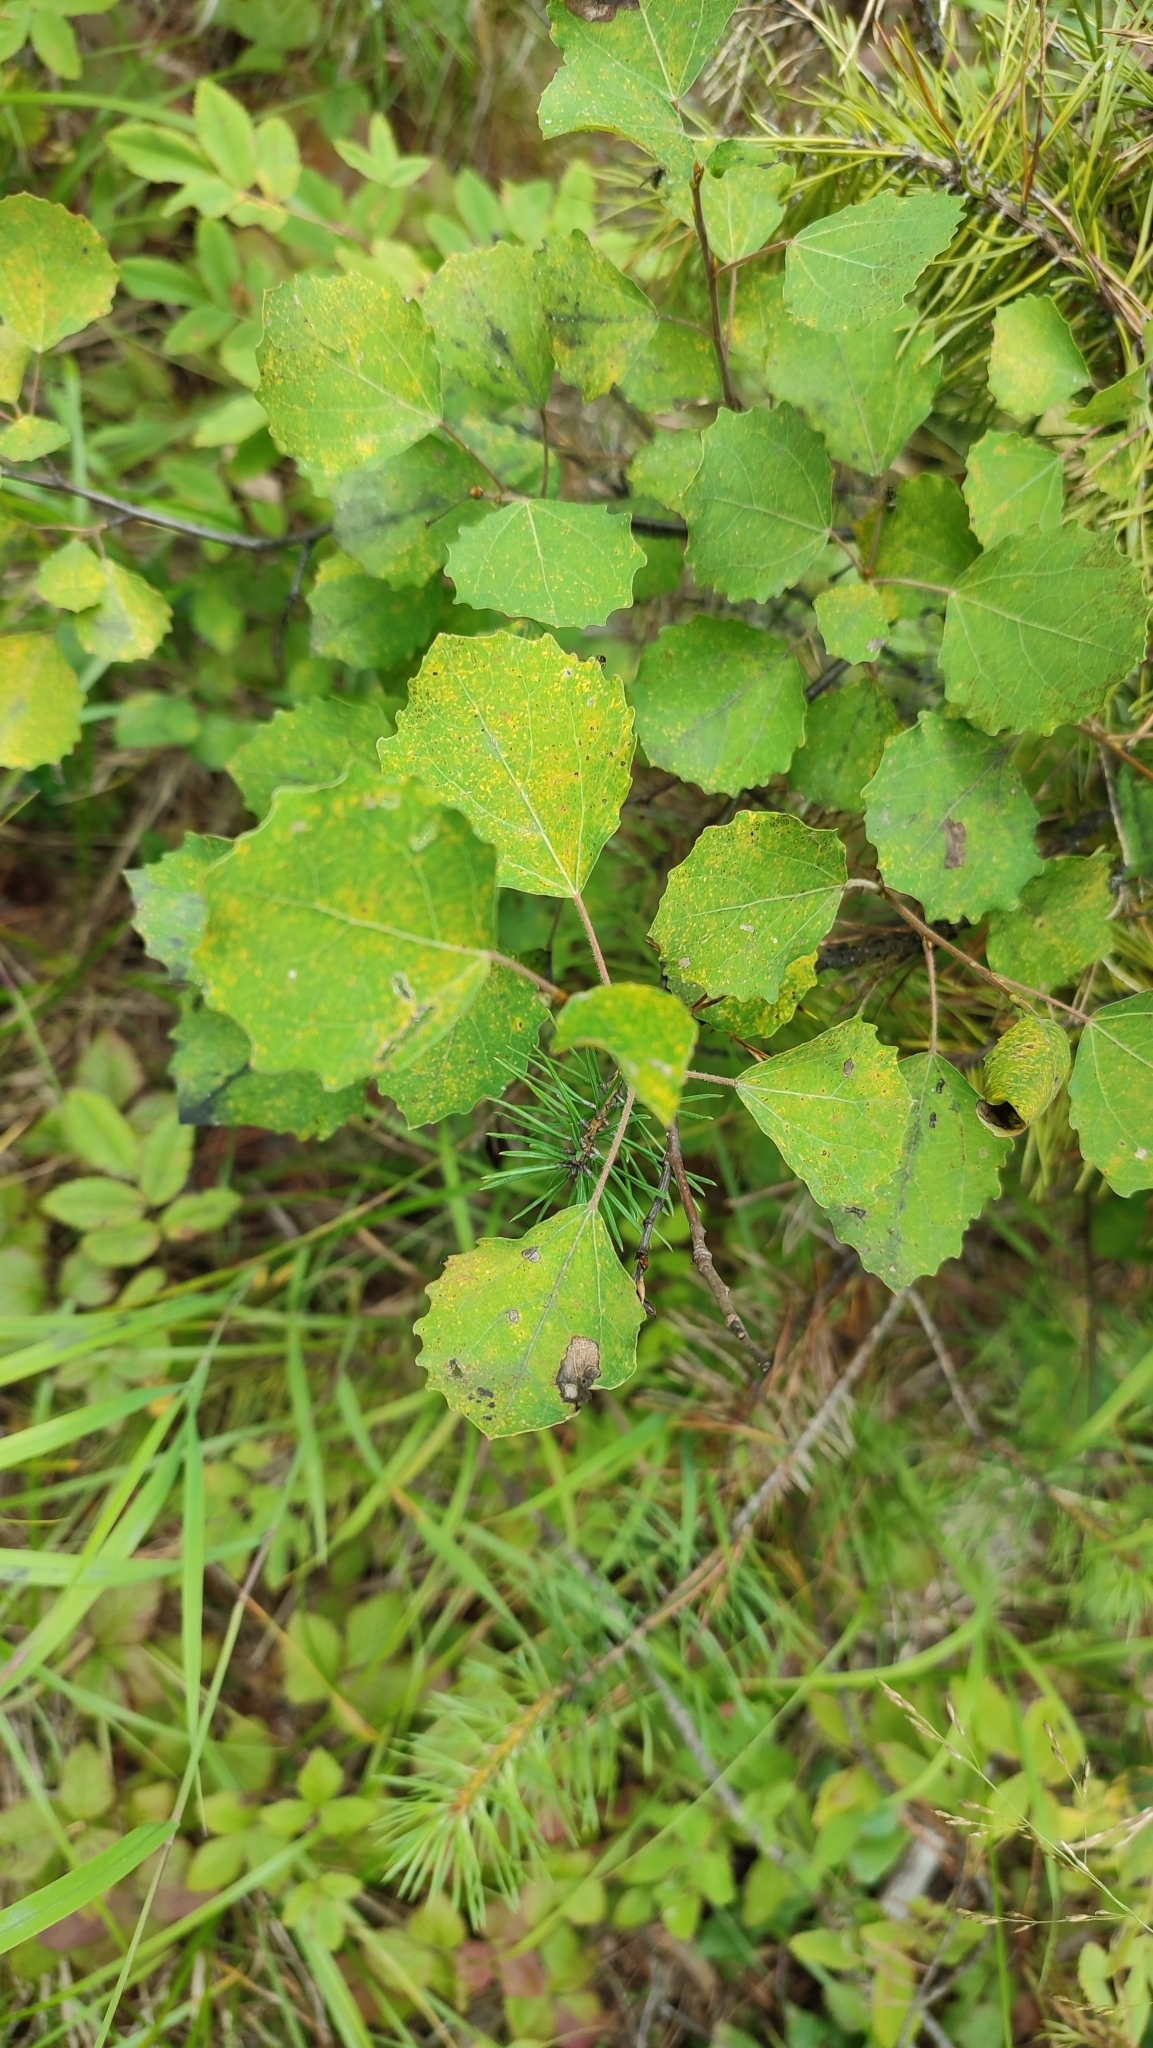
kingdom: Plantae
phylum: Tracheophyta
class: Magnoliopsida
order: Malpighiales
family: Salicaceae
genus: Populus
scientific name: Populus tremula
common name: European aspen
